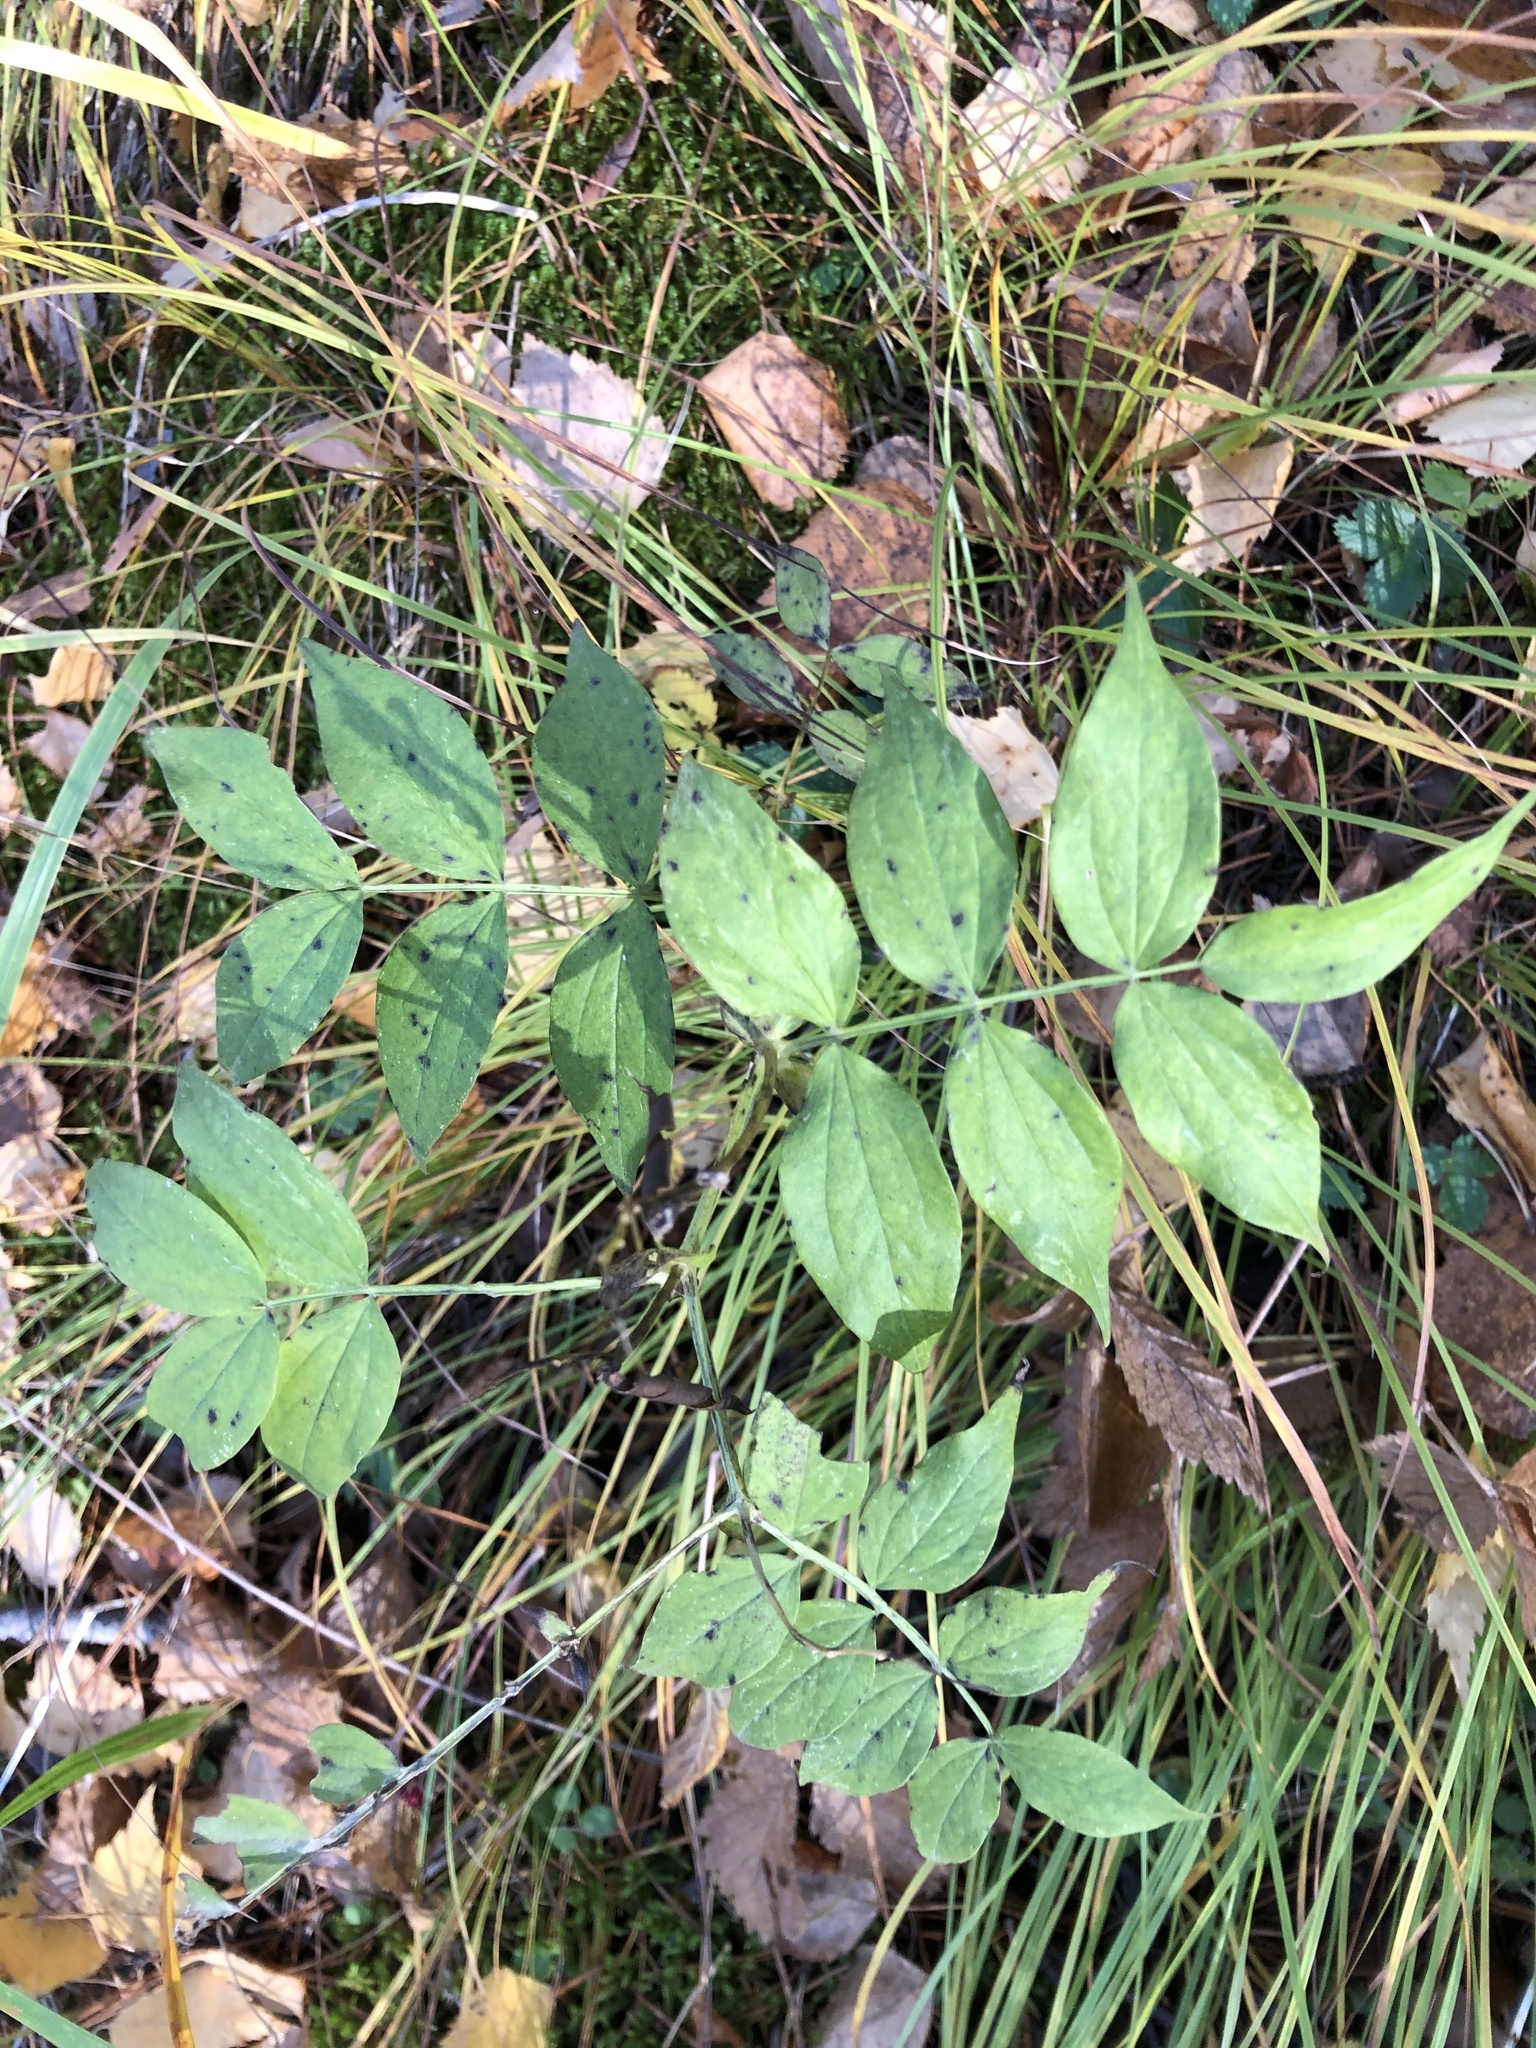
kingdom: Plantae
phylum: Tracheophyta
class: Magnoliopsida
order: Fabales
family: Fabaceae
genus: Lathyrus
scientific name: Lathyrus vernus
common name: Spring pea
